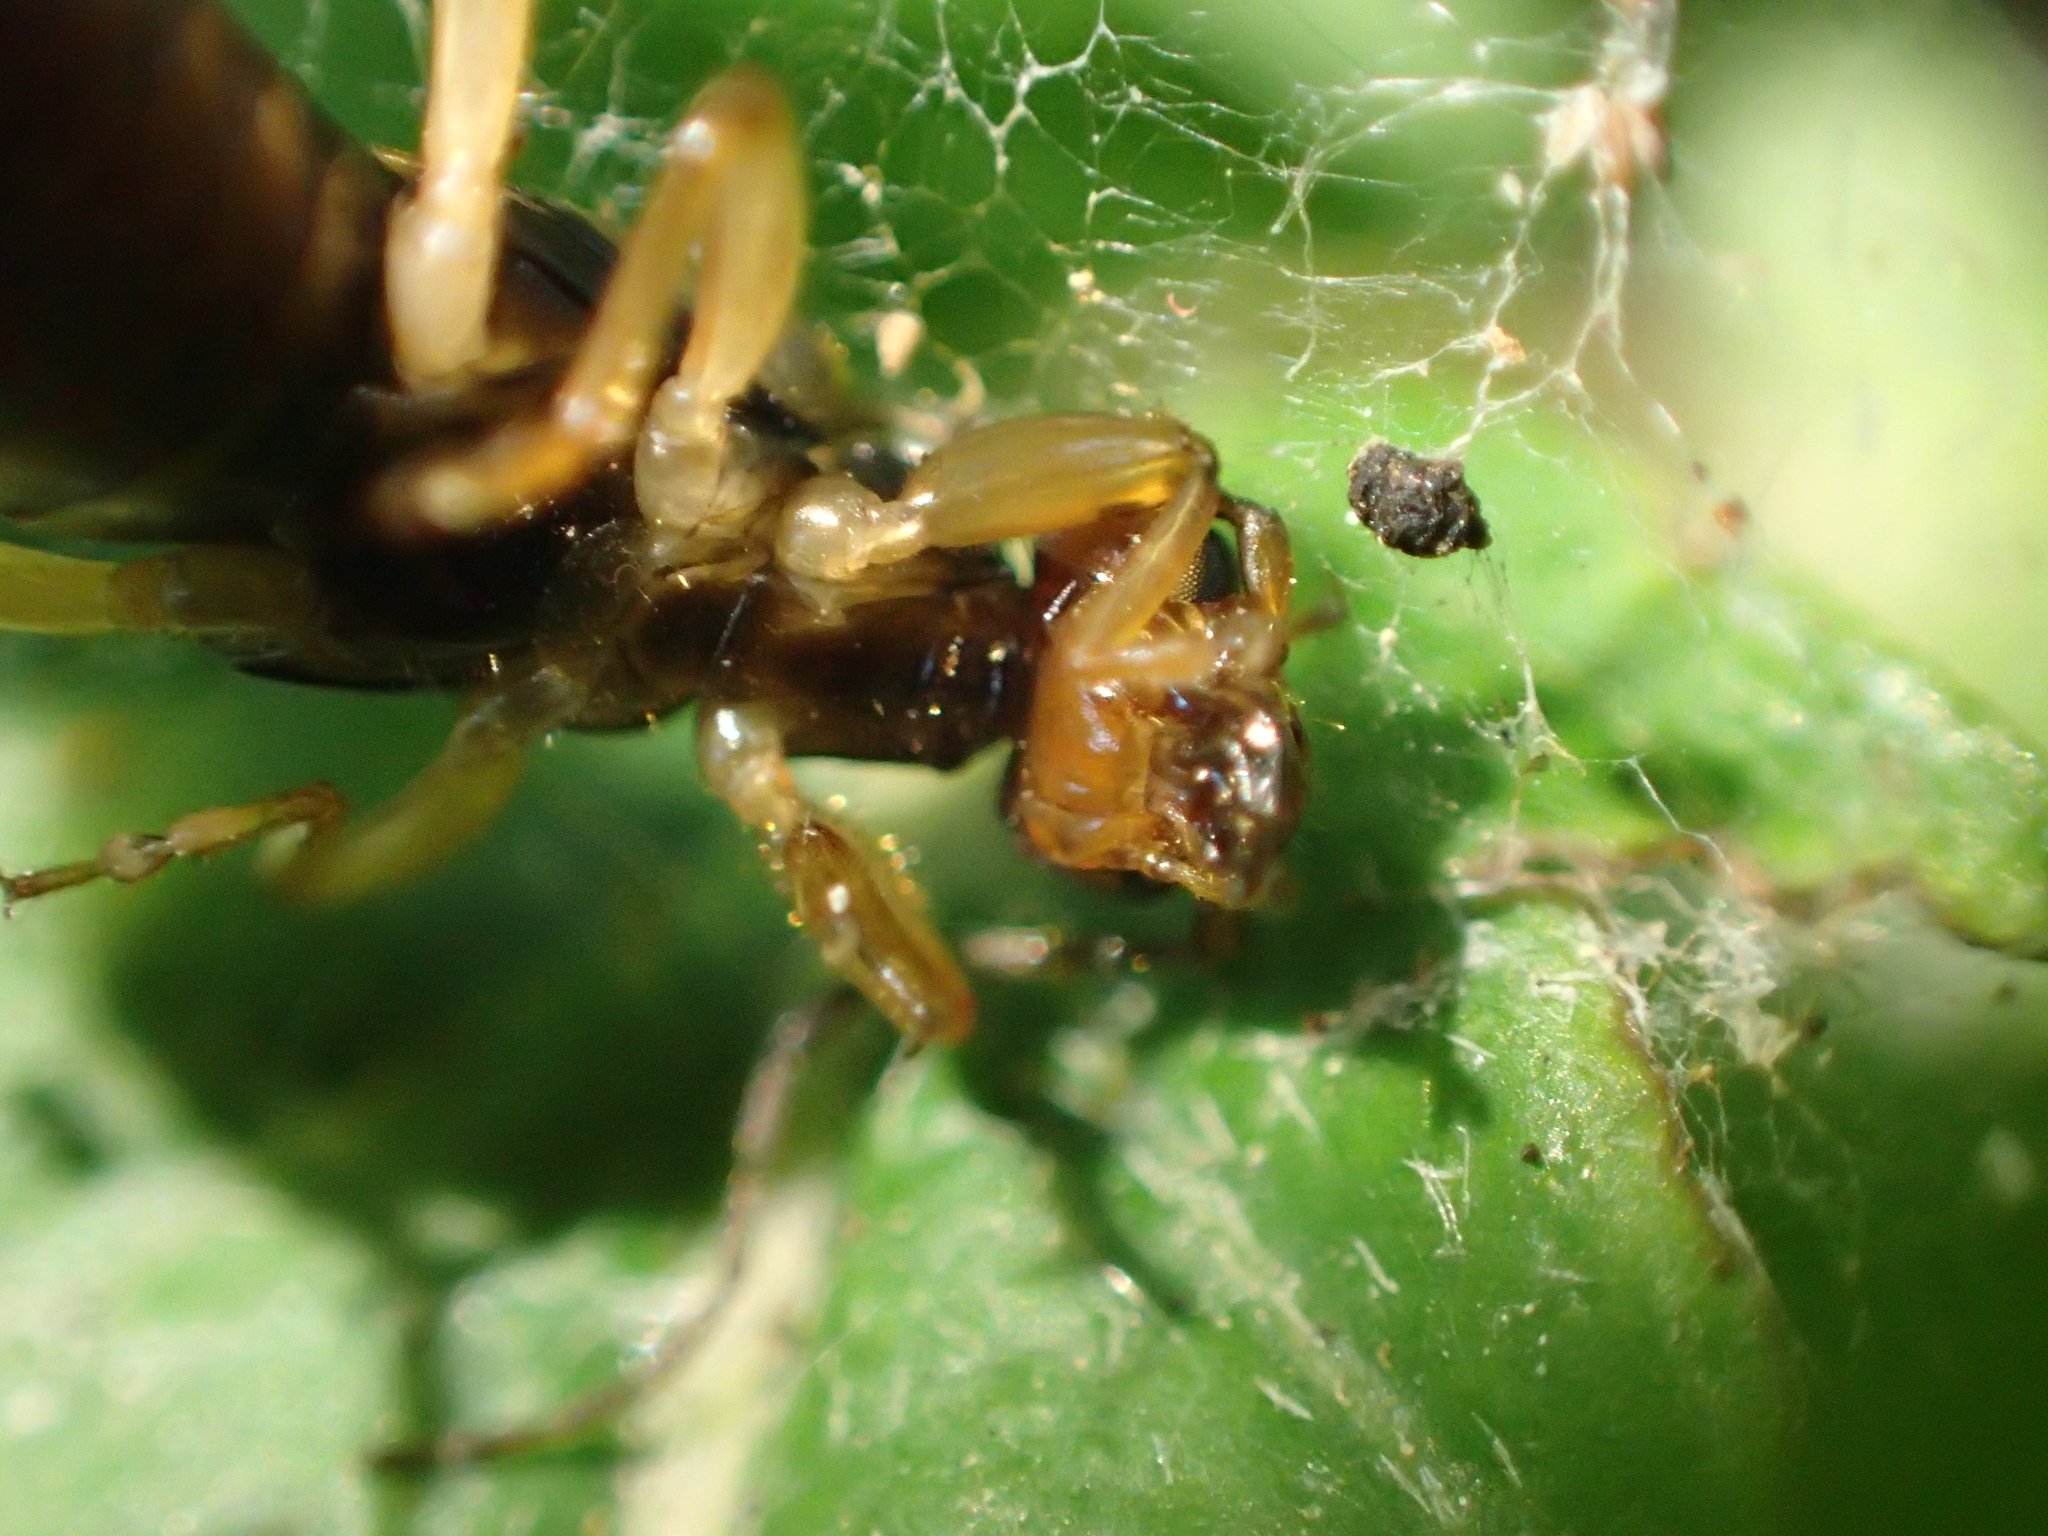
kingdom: Animalia
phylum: Arthropoda
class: Insecta
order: Dermaptera
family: Forficulidae
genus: Forficula
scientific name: Forficula
